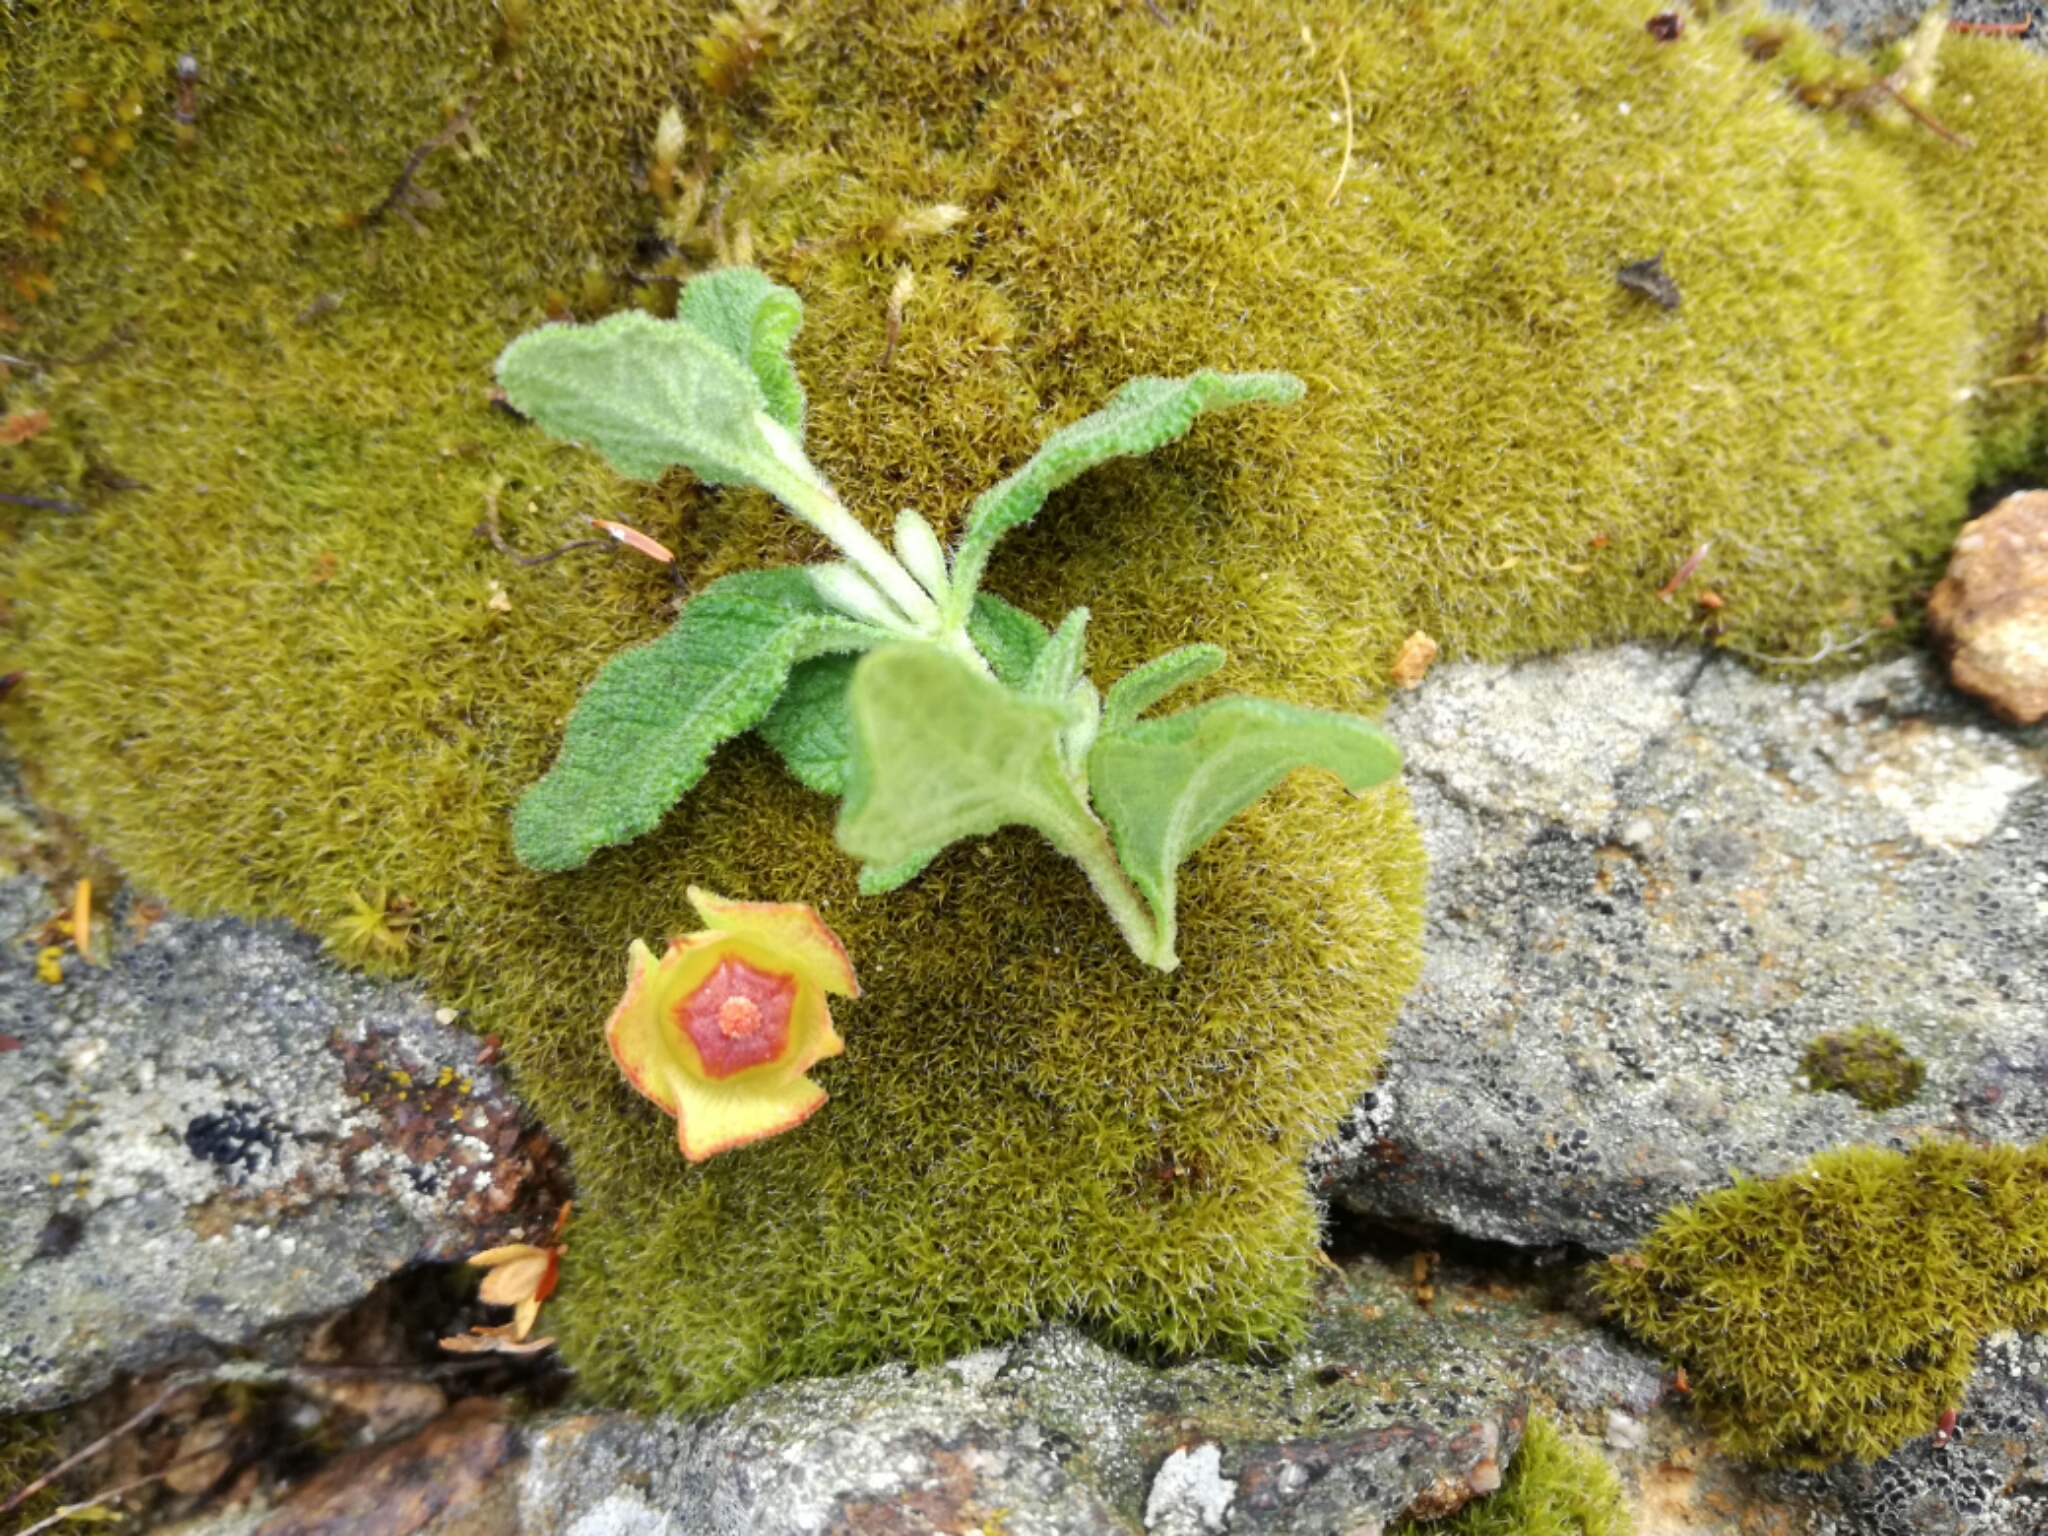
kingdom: Plantae
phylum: Tracheophyta
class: Magnoliopsida
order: Malvales
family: Cistaceae
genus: Cistus
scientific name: Cistus salviifolius
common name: Salvia cistus
